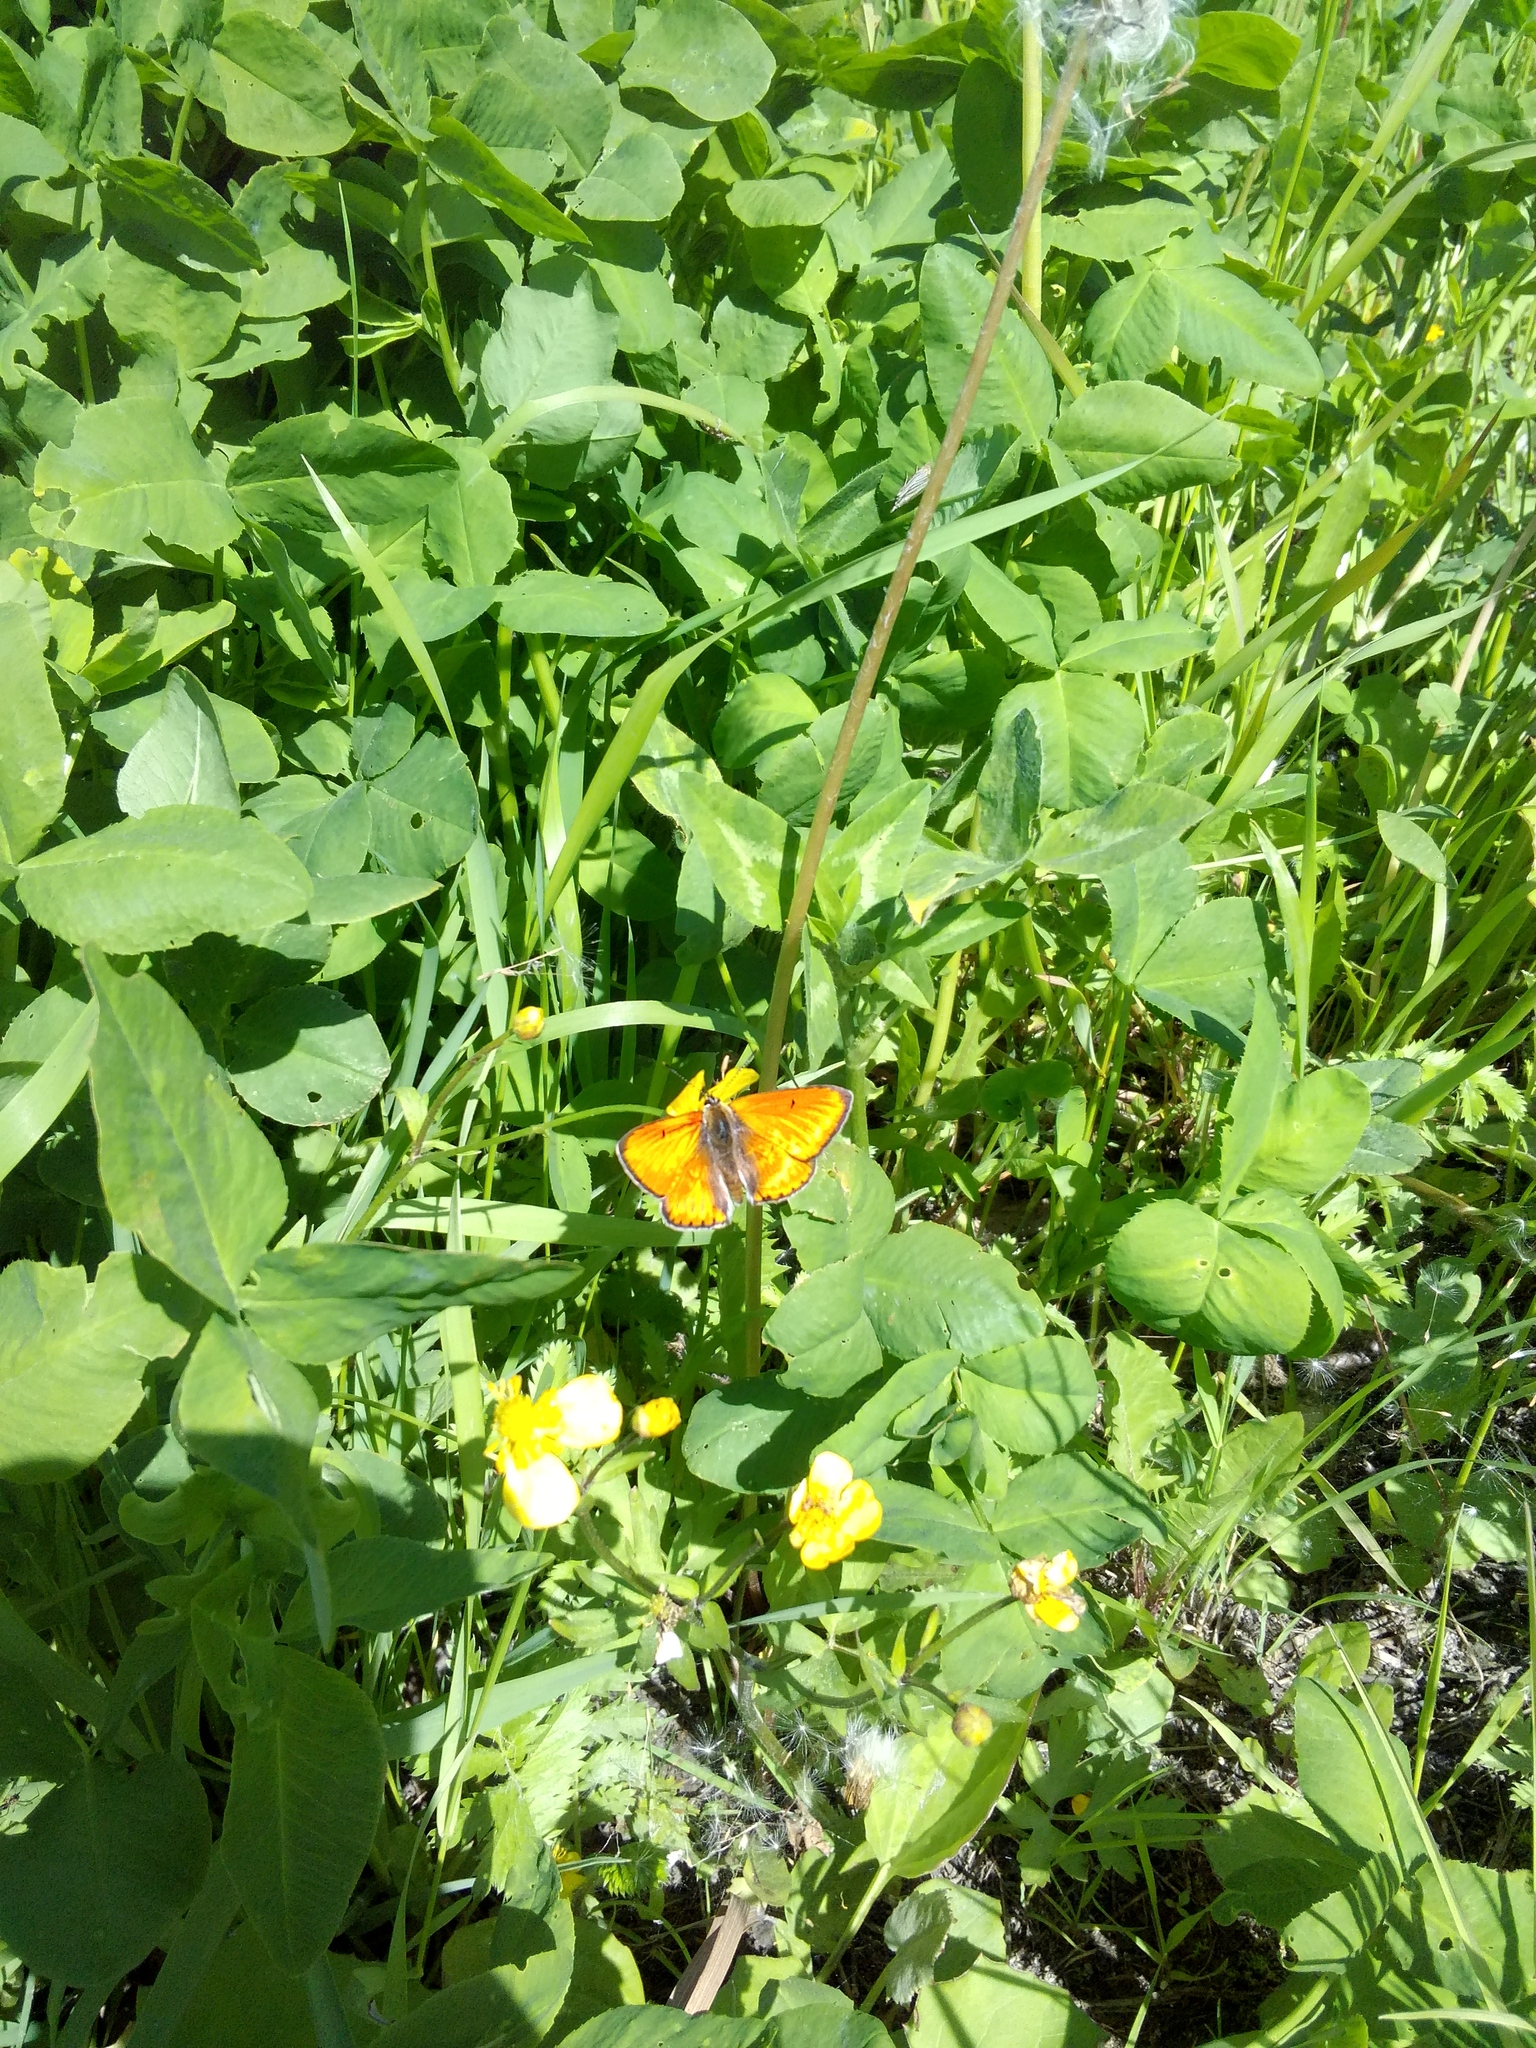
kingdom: Animalia
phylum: Arthropoda
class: Insecta
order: Lepidoptera
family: Lycaenidae
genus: Lycaena
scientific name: Lycaena dispar
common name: Large copper
